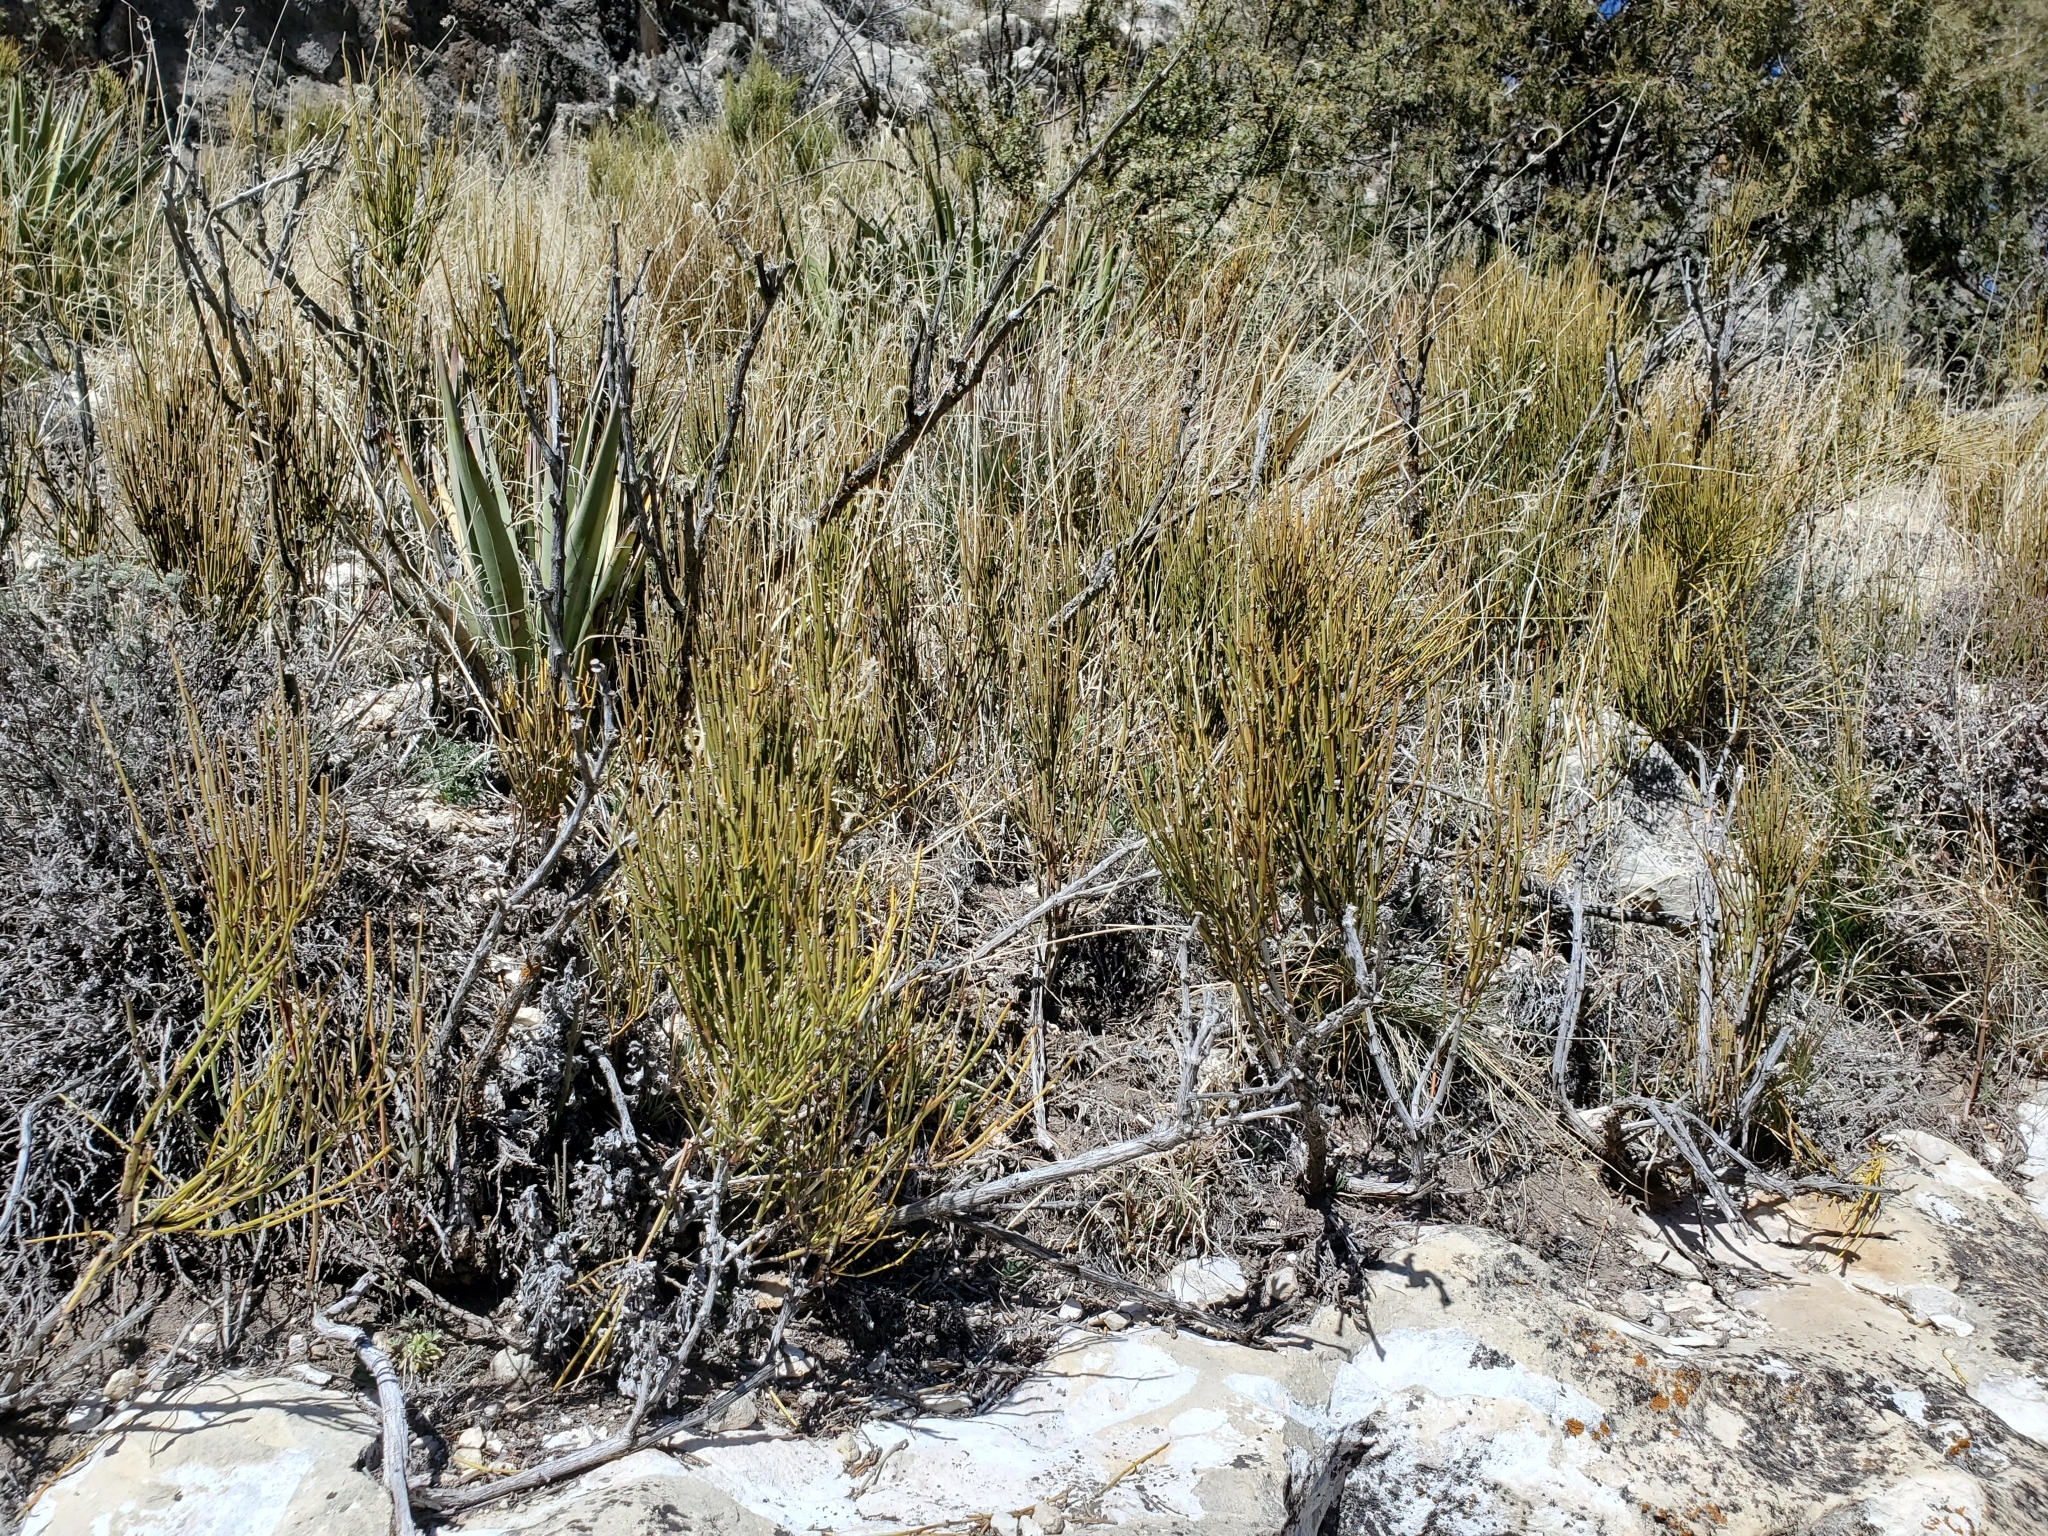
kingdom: Plantae
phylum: Tracheophyta
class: Gnetopsida
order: Ephedrales
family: Ephedraceae
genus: Ephedra
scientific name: Ephedra viridis
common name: Green ephedra
